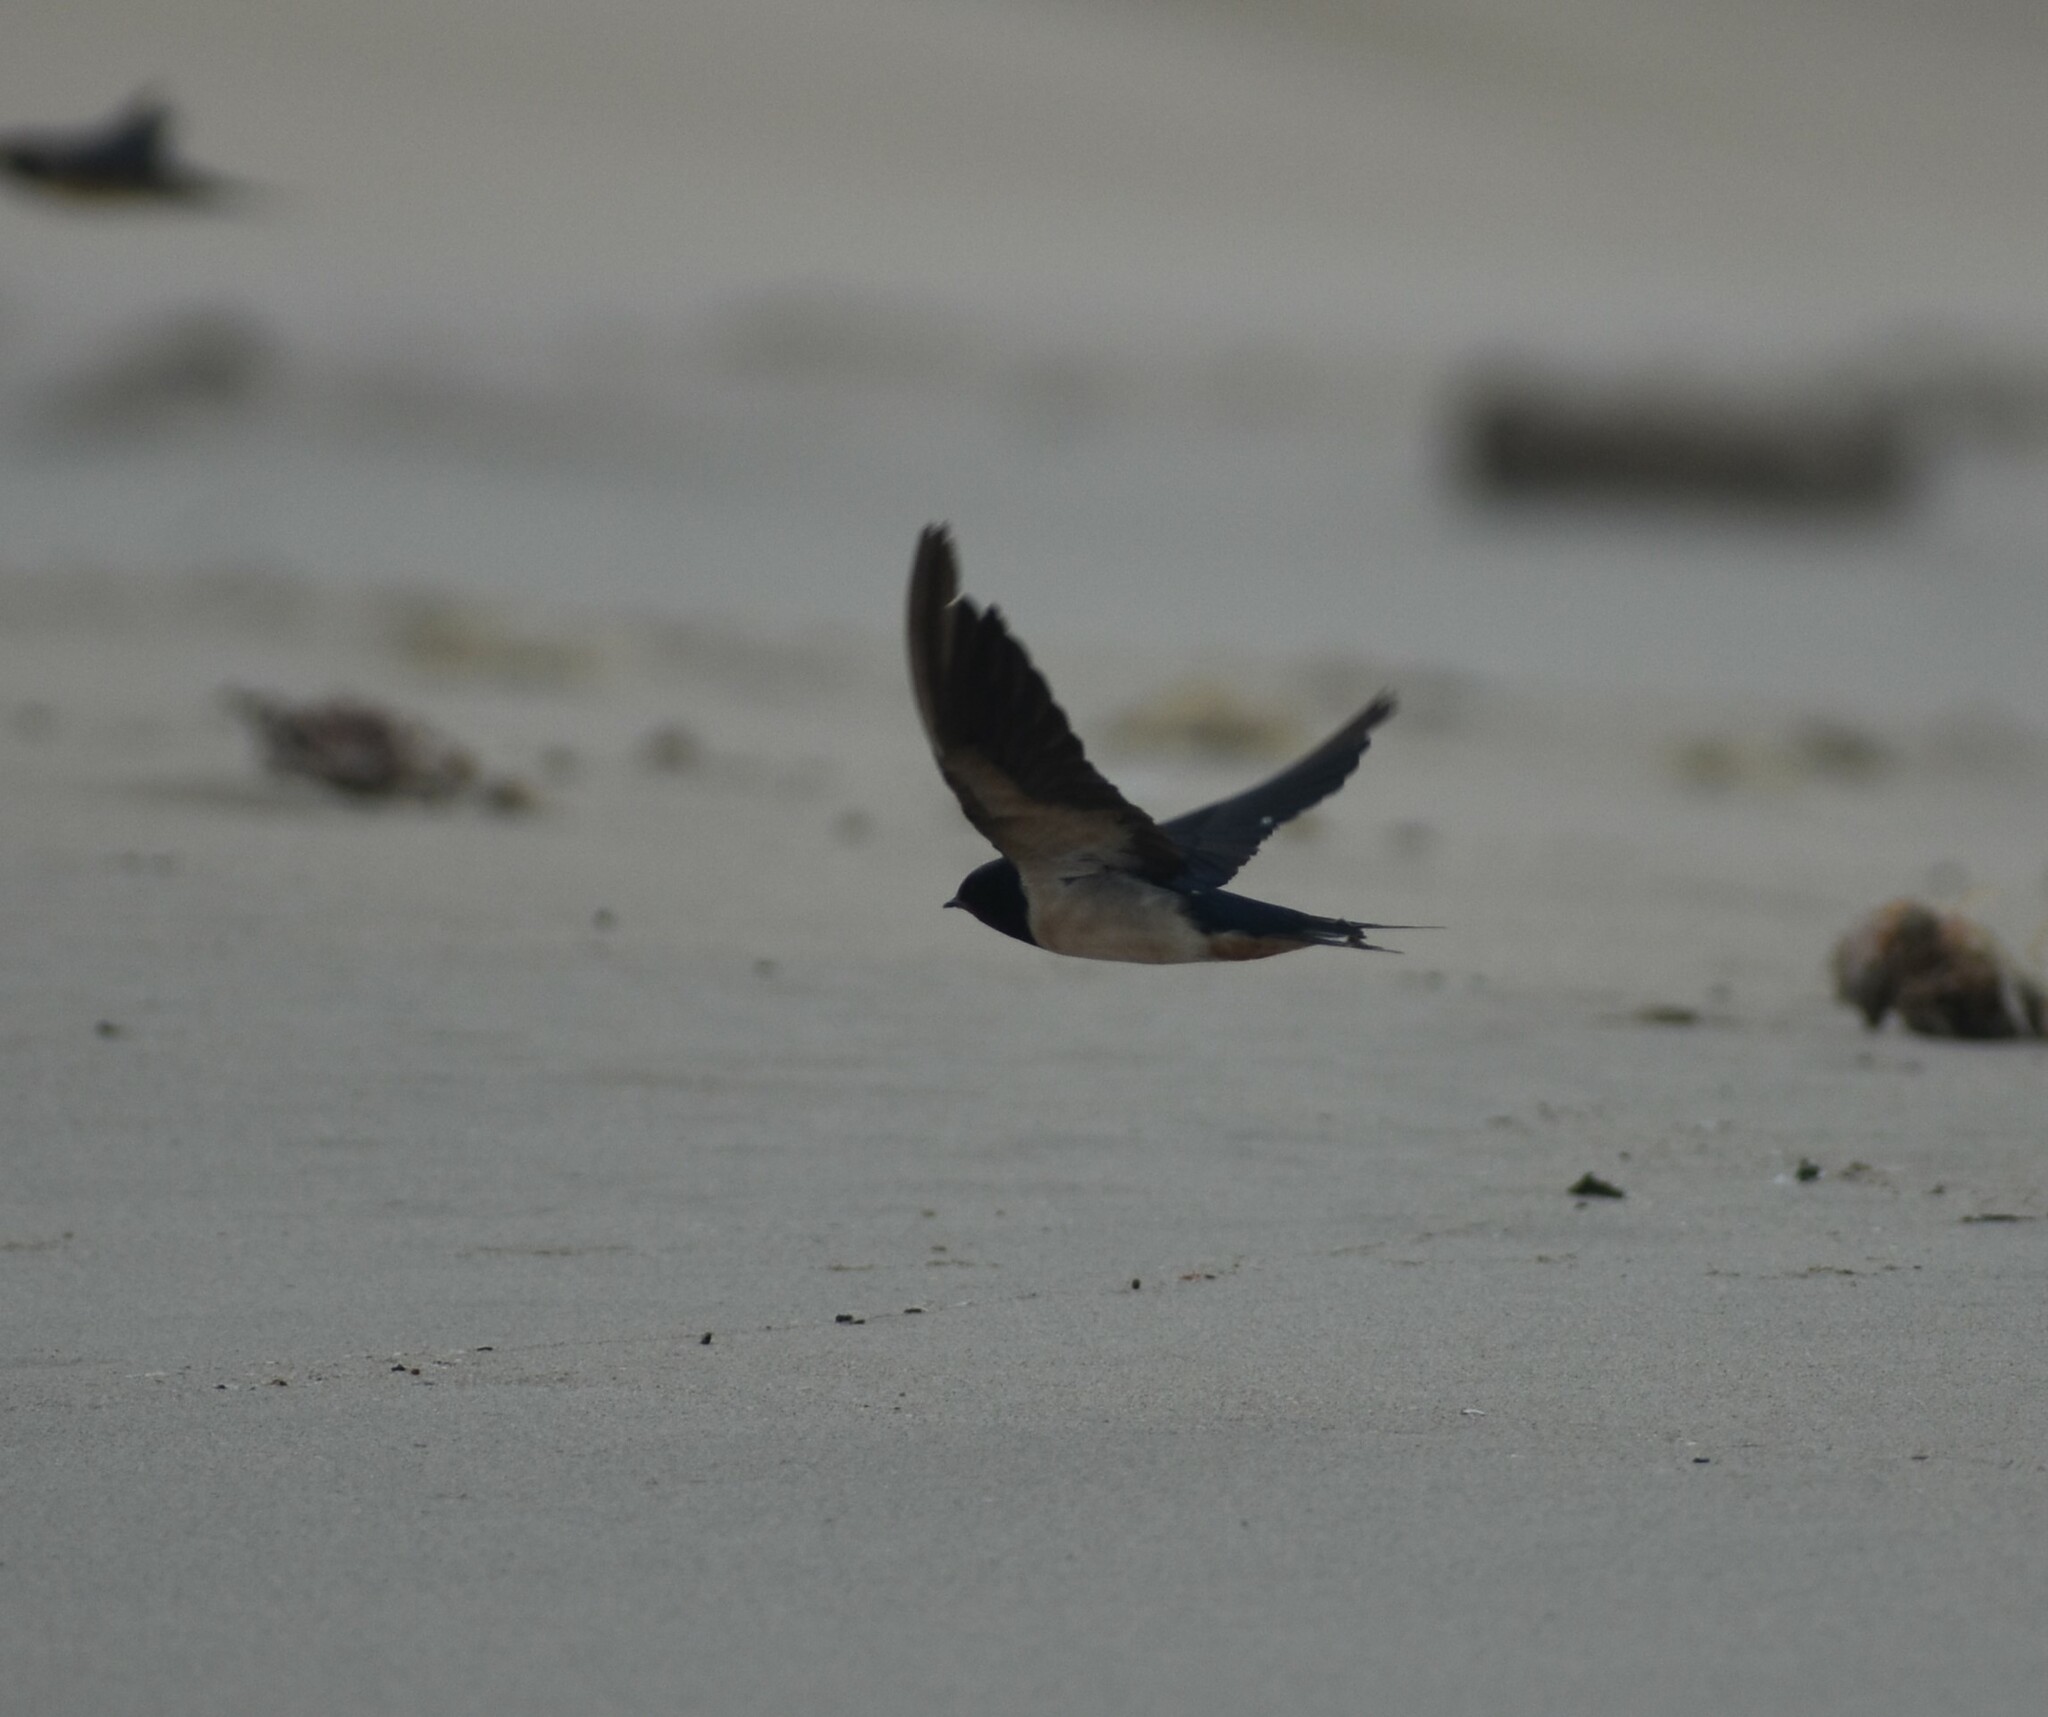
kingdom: Animalia
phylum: Chordata
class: Aves
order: Passeriformes
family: Hirundinidae
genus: Hirundo
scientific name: Hirundo rustica
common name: Barn swallow
